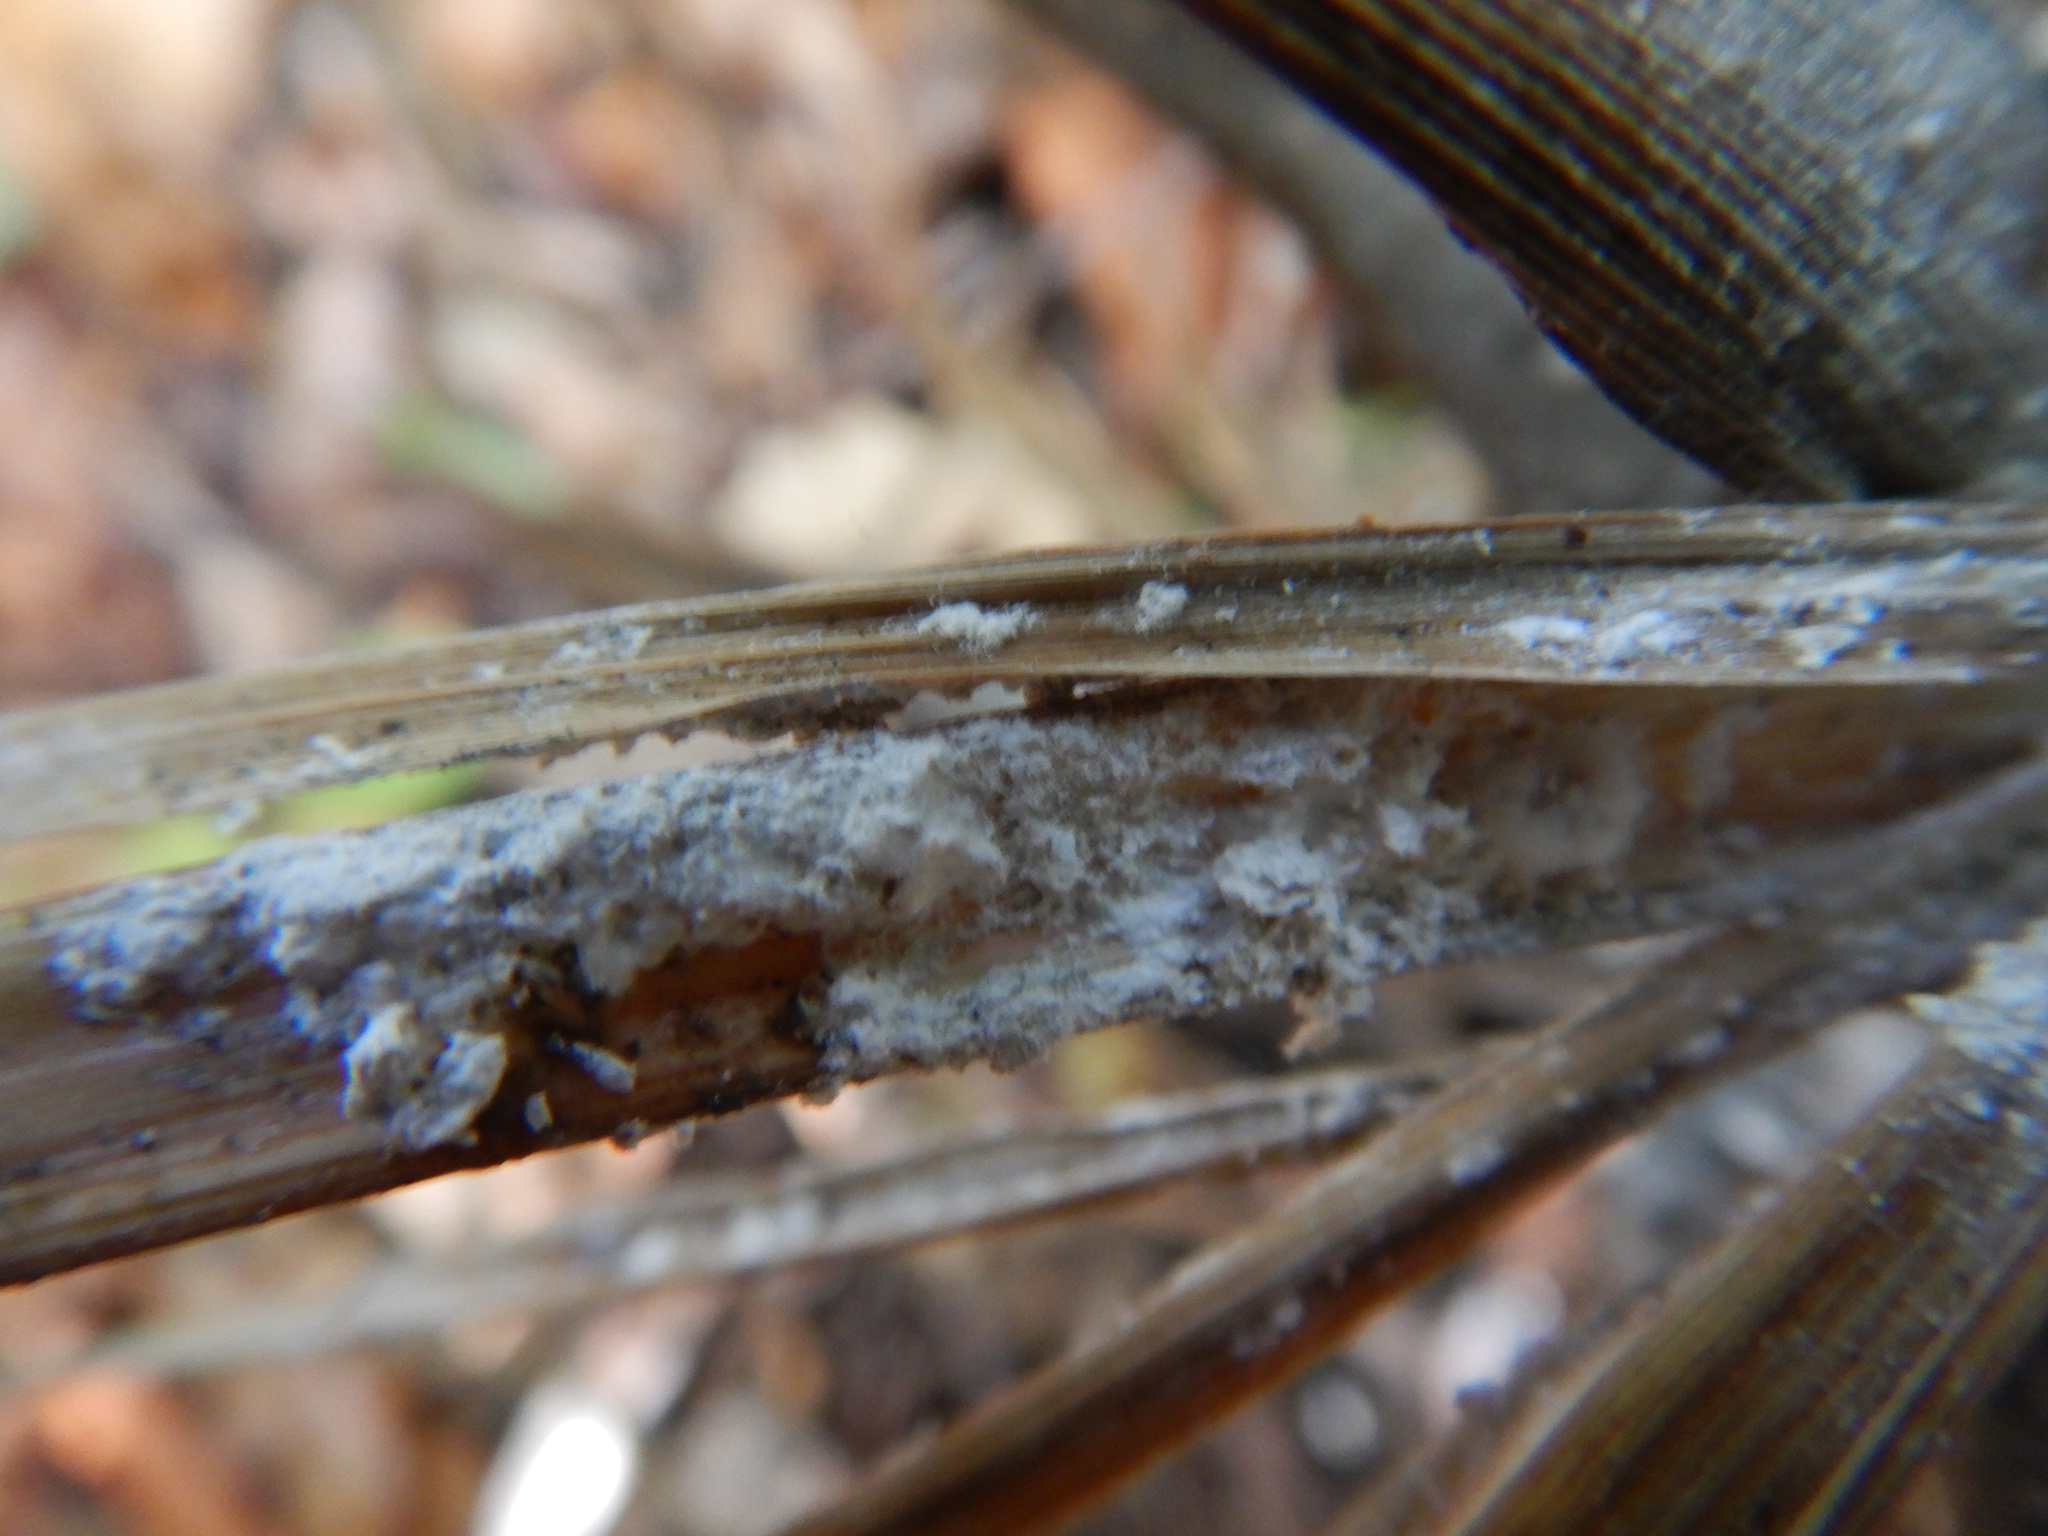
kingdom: Animalia
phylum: Arthropoda
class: Insecta
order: Hemiptera
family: Pseudococcidae
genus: Balanococcus
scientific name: Balanococcus cordylinidis
